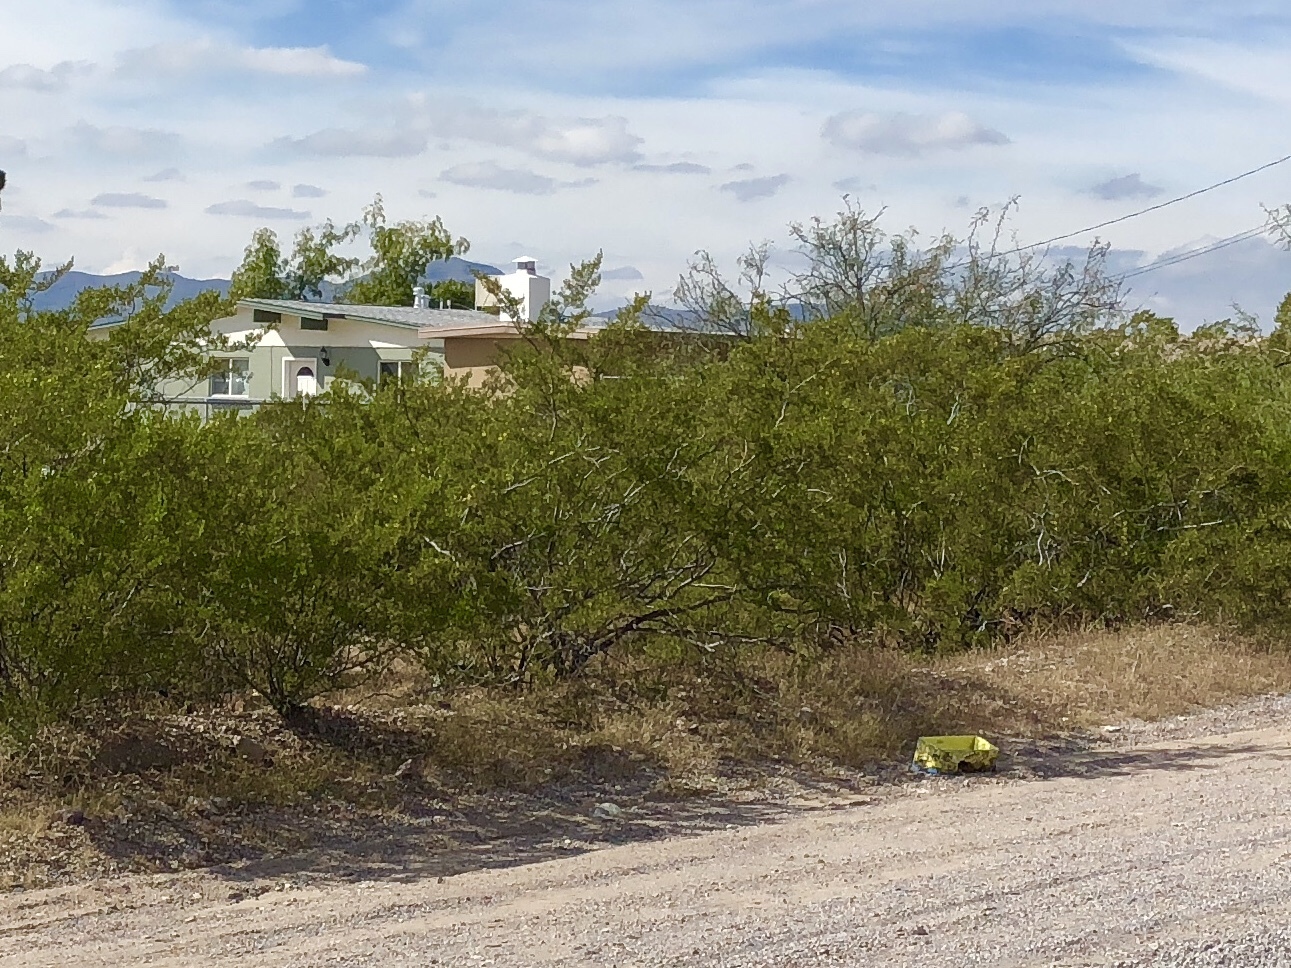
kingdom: Plantae
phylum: Tracheophyta
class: Magnoliopsida
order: Zygophyllales
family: Zygophyllaceae
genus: Larrea
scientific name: Larrea tridentata
